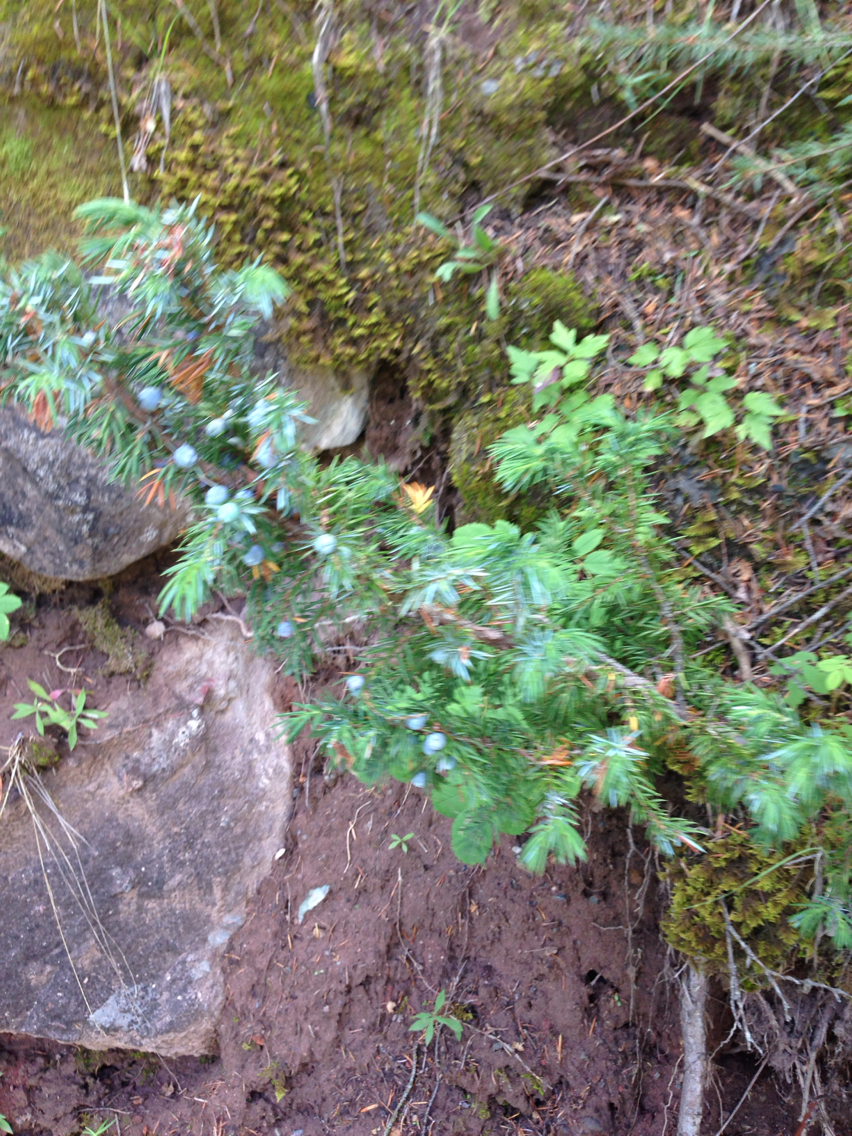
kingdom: Plantae
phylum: Tracheophyta
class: Pinopsida
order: Pinales
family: Cupressaceae
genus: Juniperus
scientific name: Juniperus communis
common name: Common juniper
